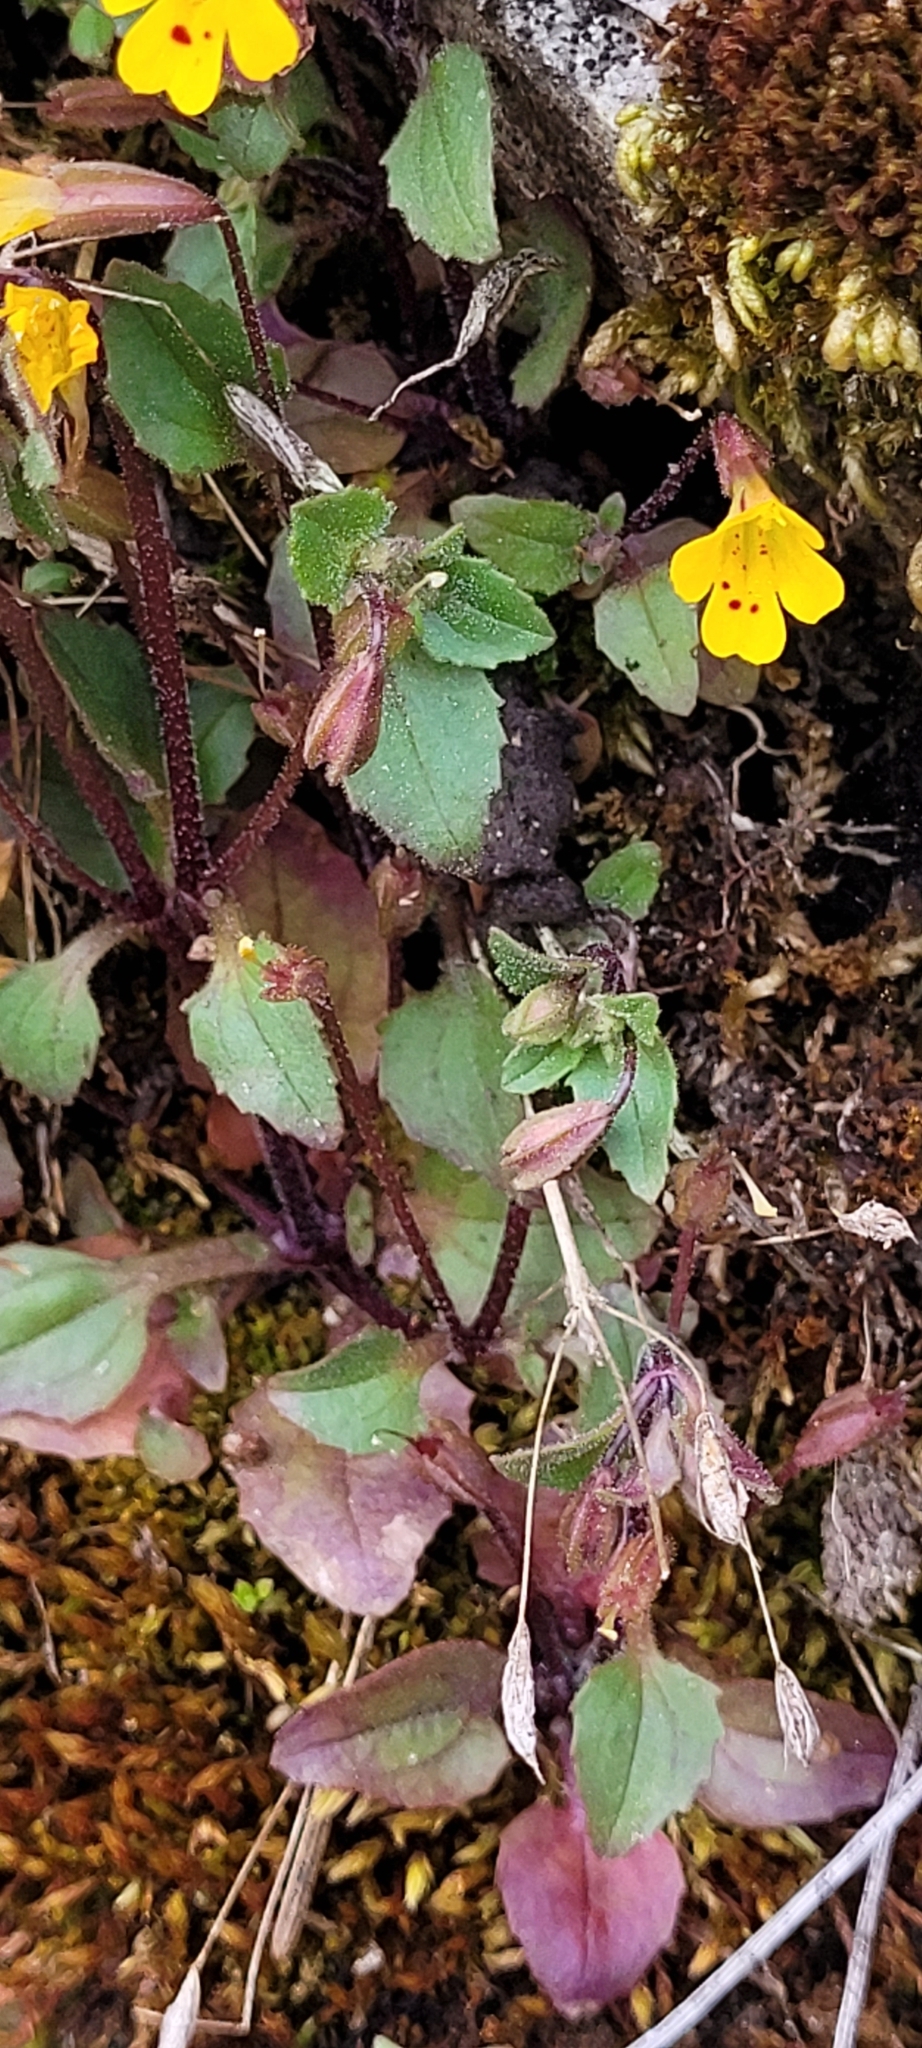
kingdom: Plantae
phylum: Tracheophyta
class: Magnoliopsida
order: Lamiales
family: Phrymaceae
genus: Erythranthe
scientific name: Erythranthe alsinoides
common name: Chickweed monkeyflower
